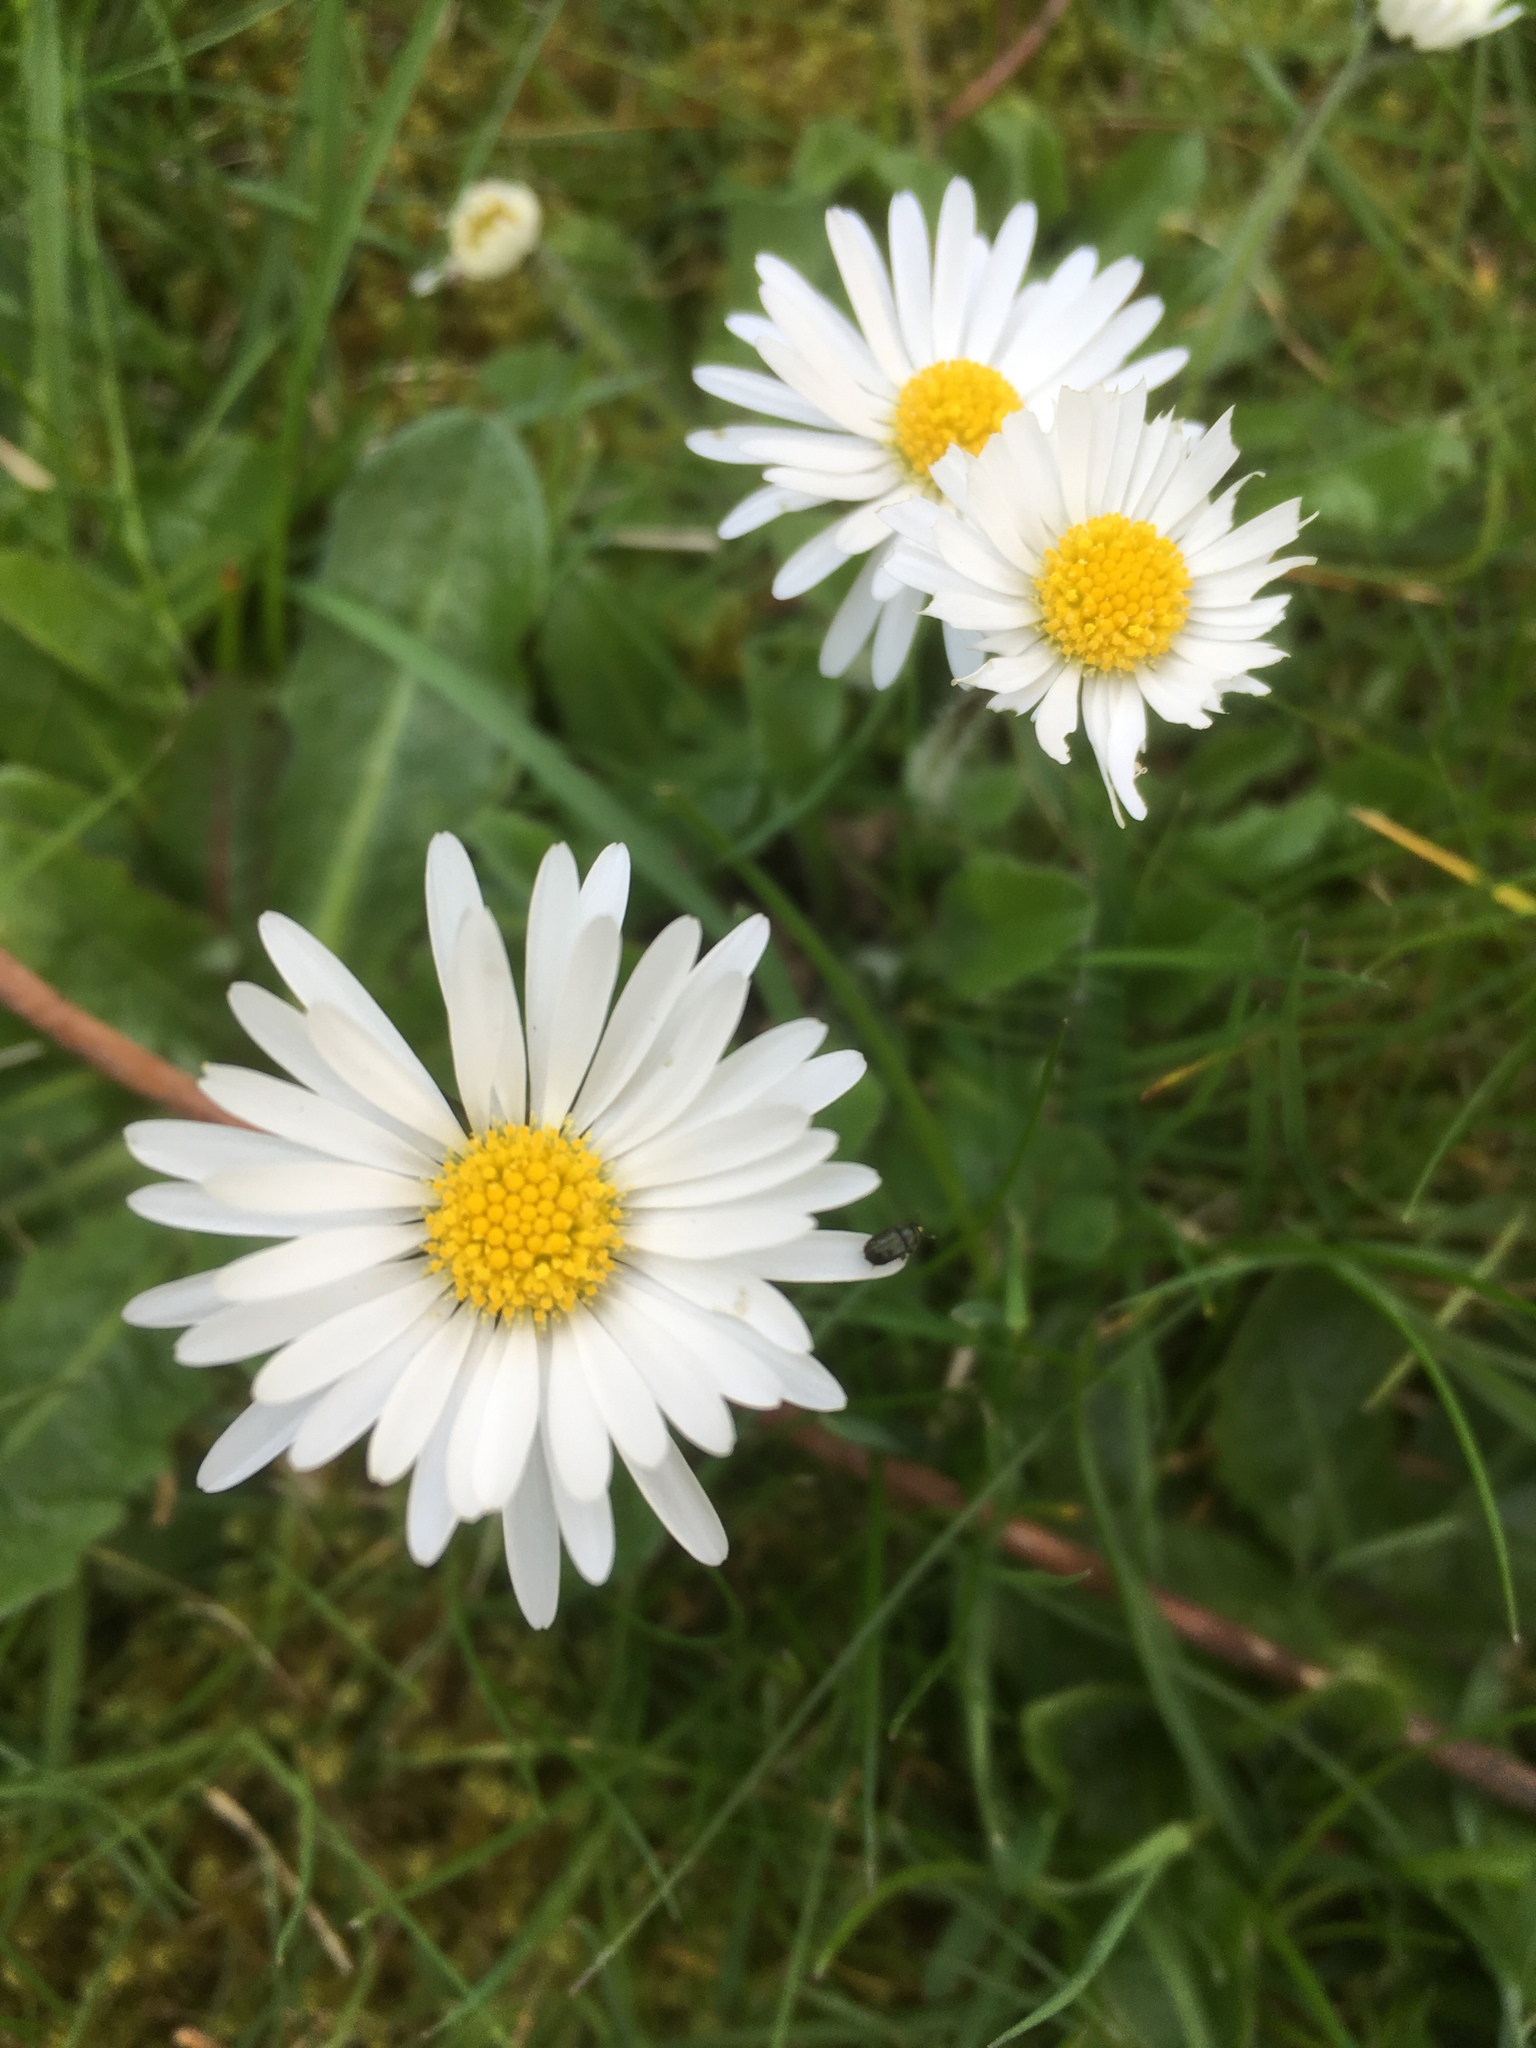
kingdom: Plantae
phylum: Tracheophyta
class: Magnoliopsida
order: Asterales
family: Asteraceae
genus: Bellis
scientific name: Bellis perennis
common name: Lawndaisy
